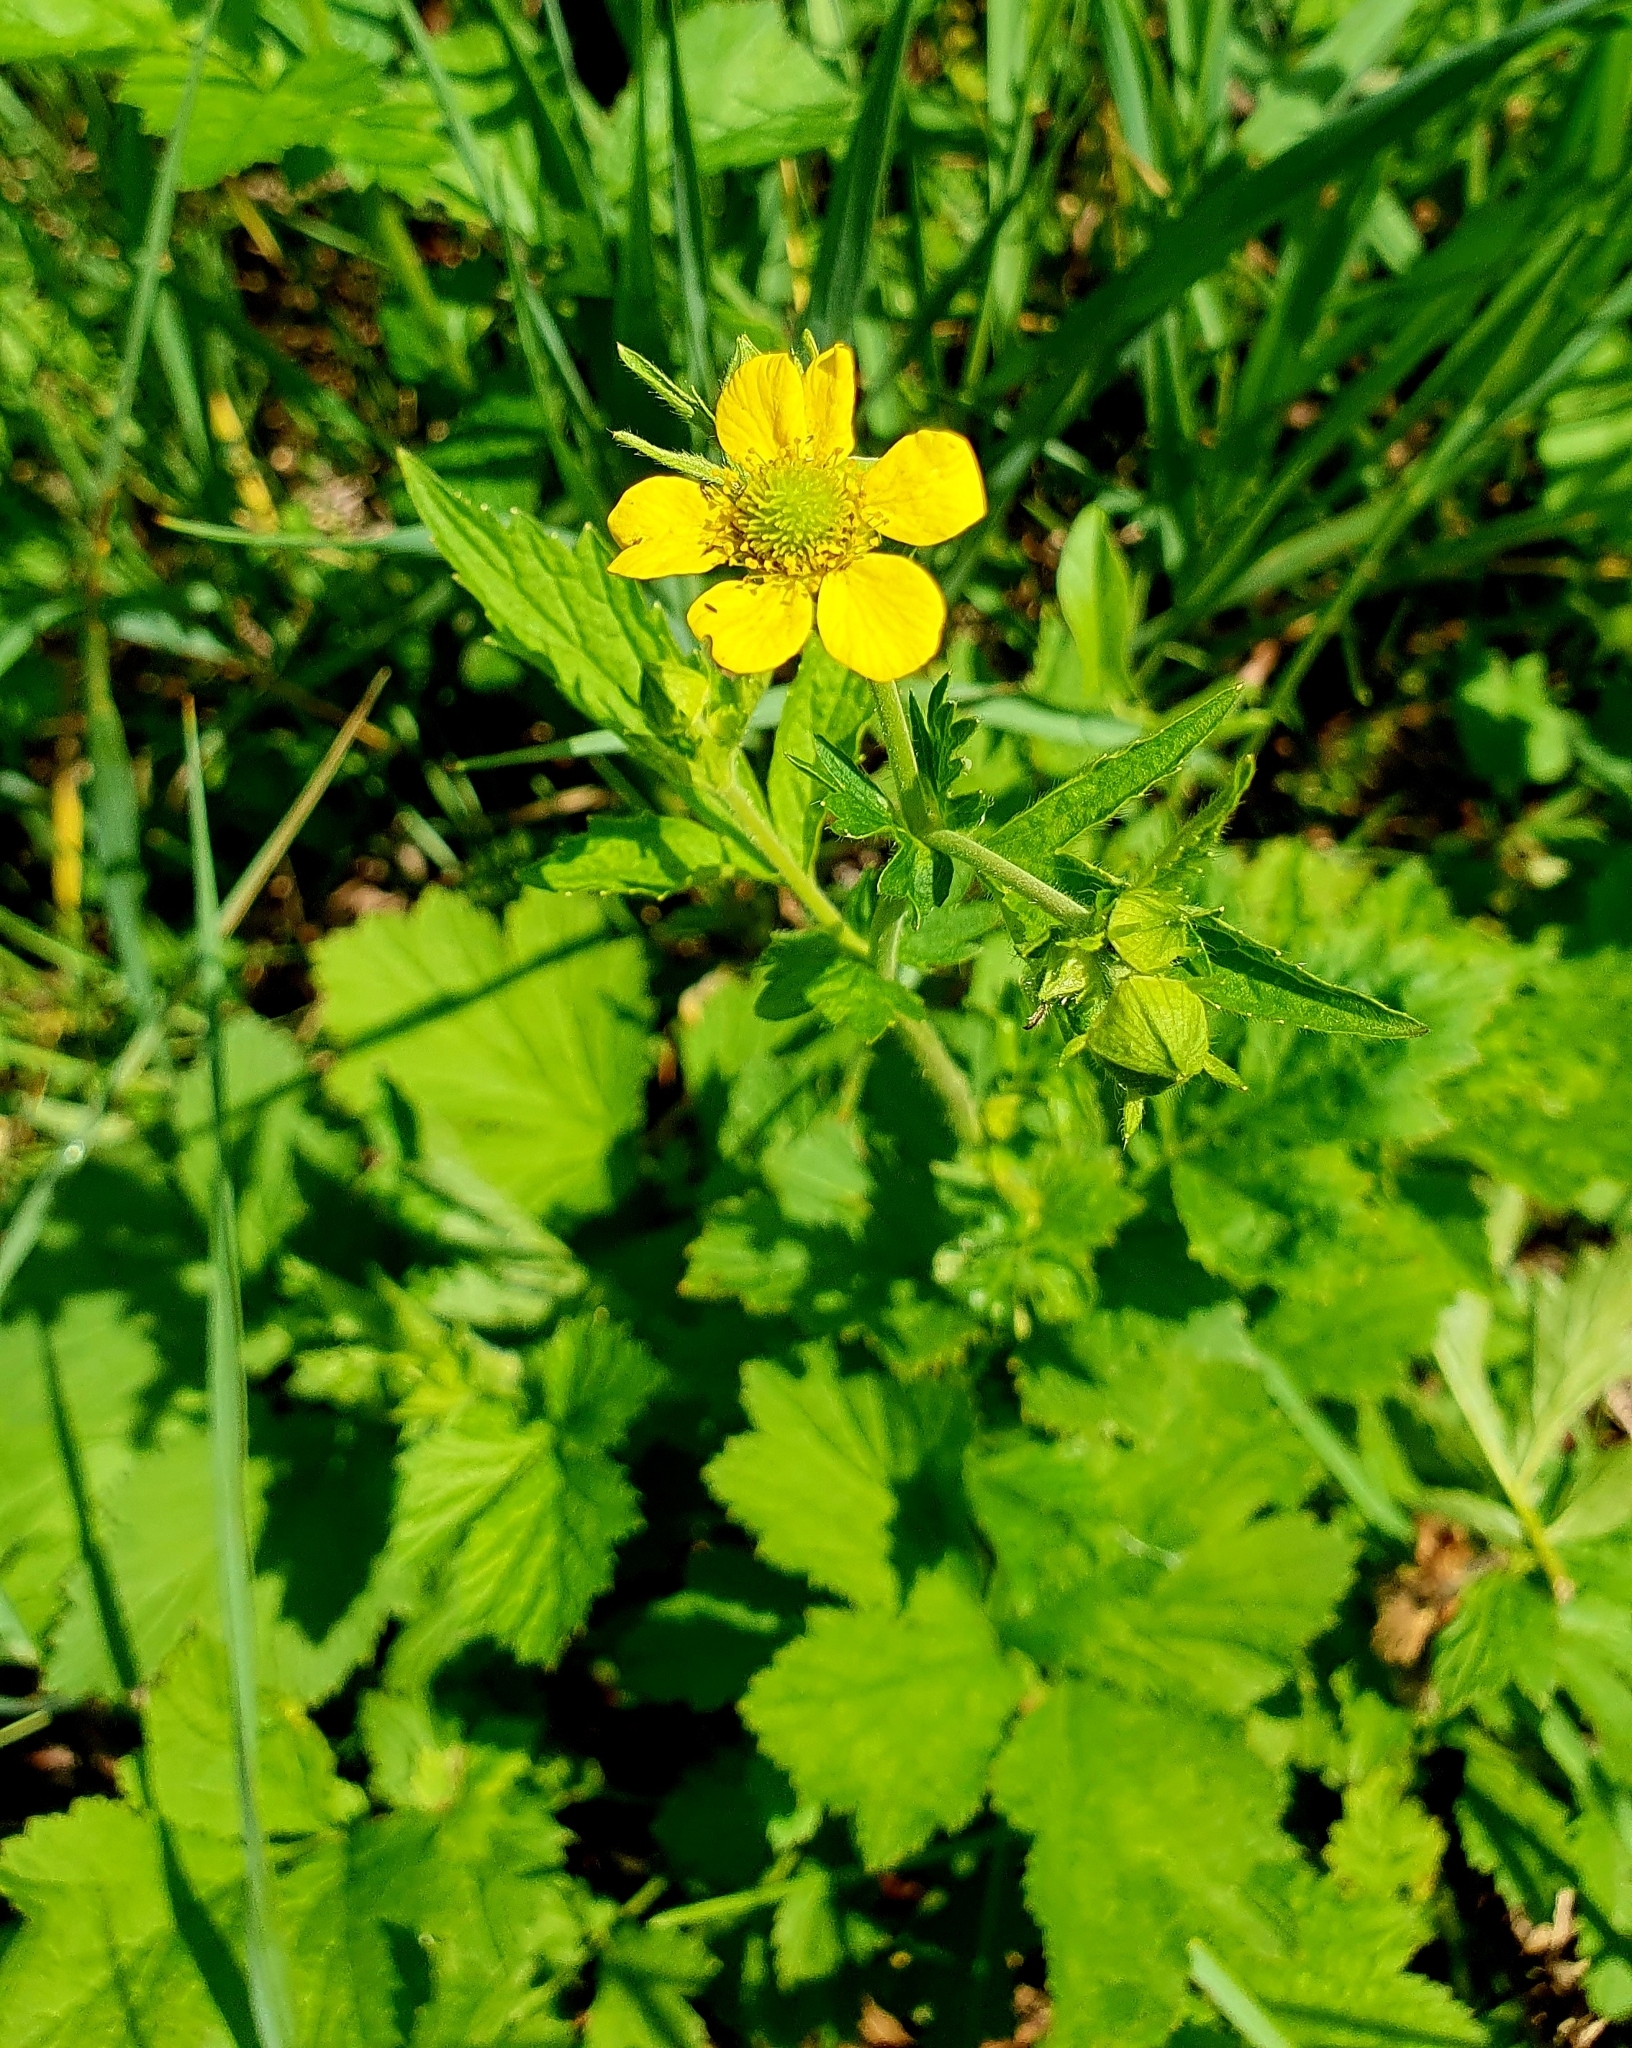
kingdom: Plantae
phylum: Tracheophyta
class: Magnoliopsida
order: Rosales
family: Rosaceae
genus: Geum
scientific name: Geum urbanum
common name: Wood avens
